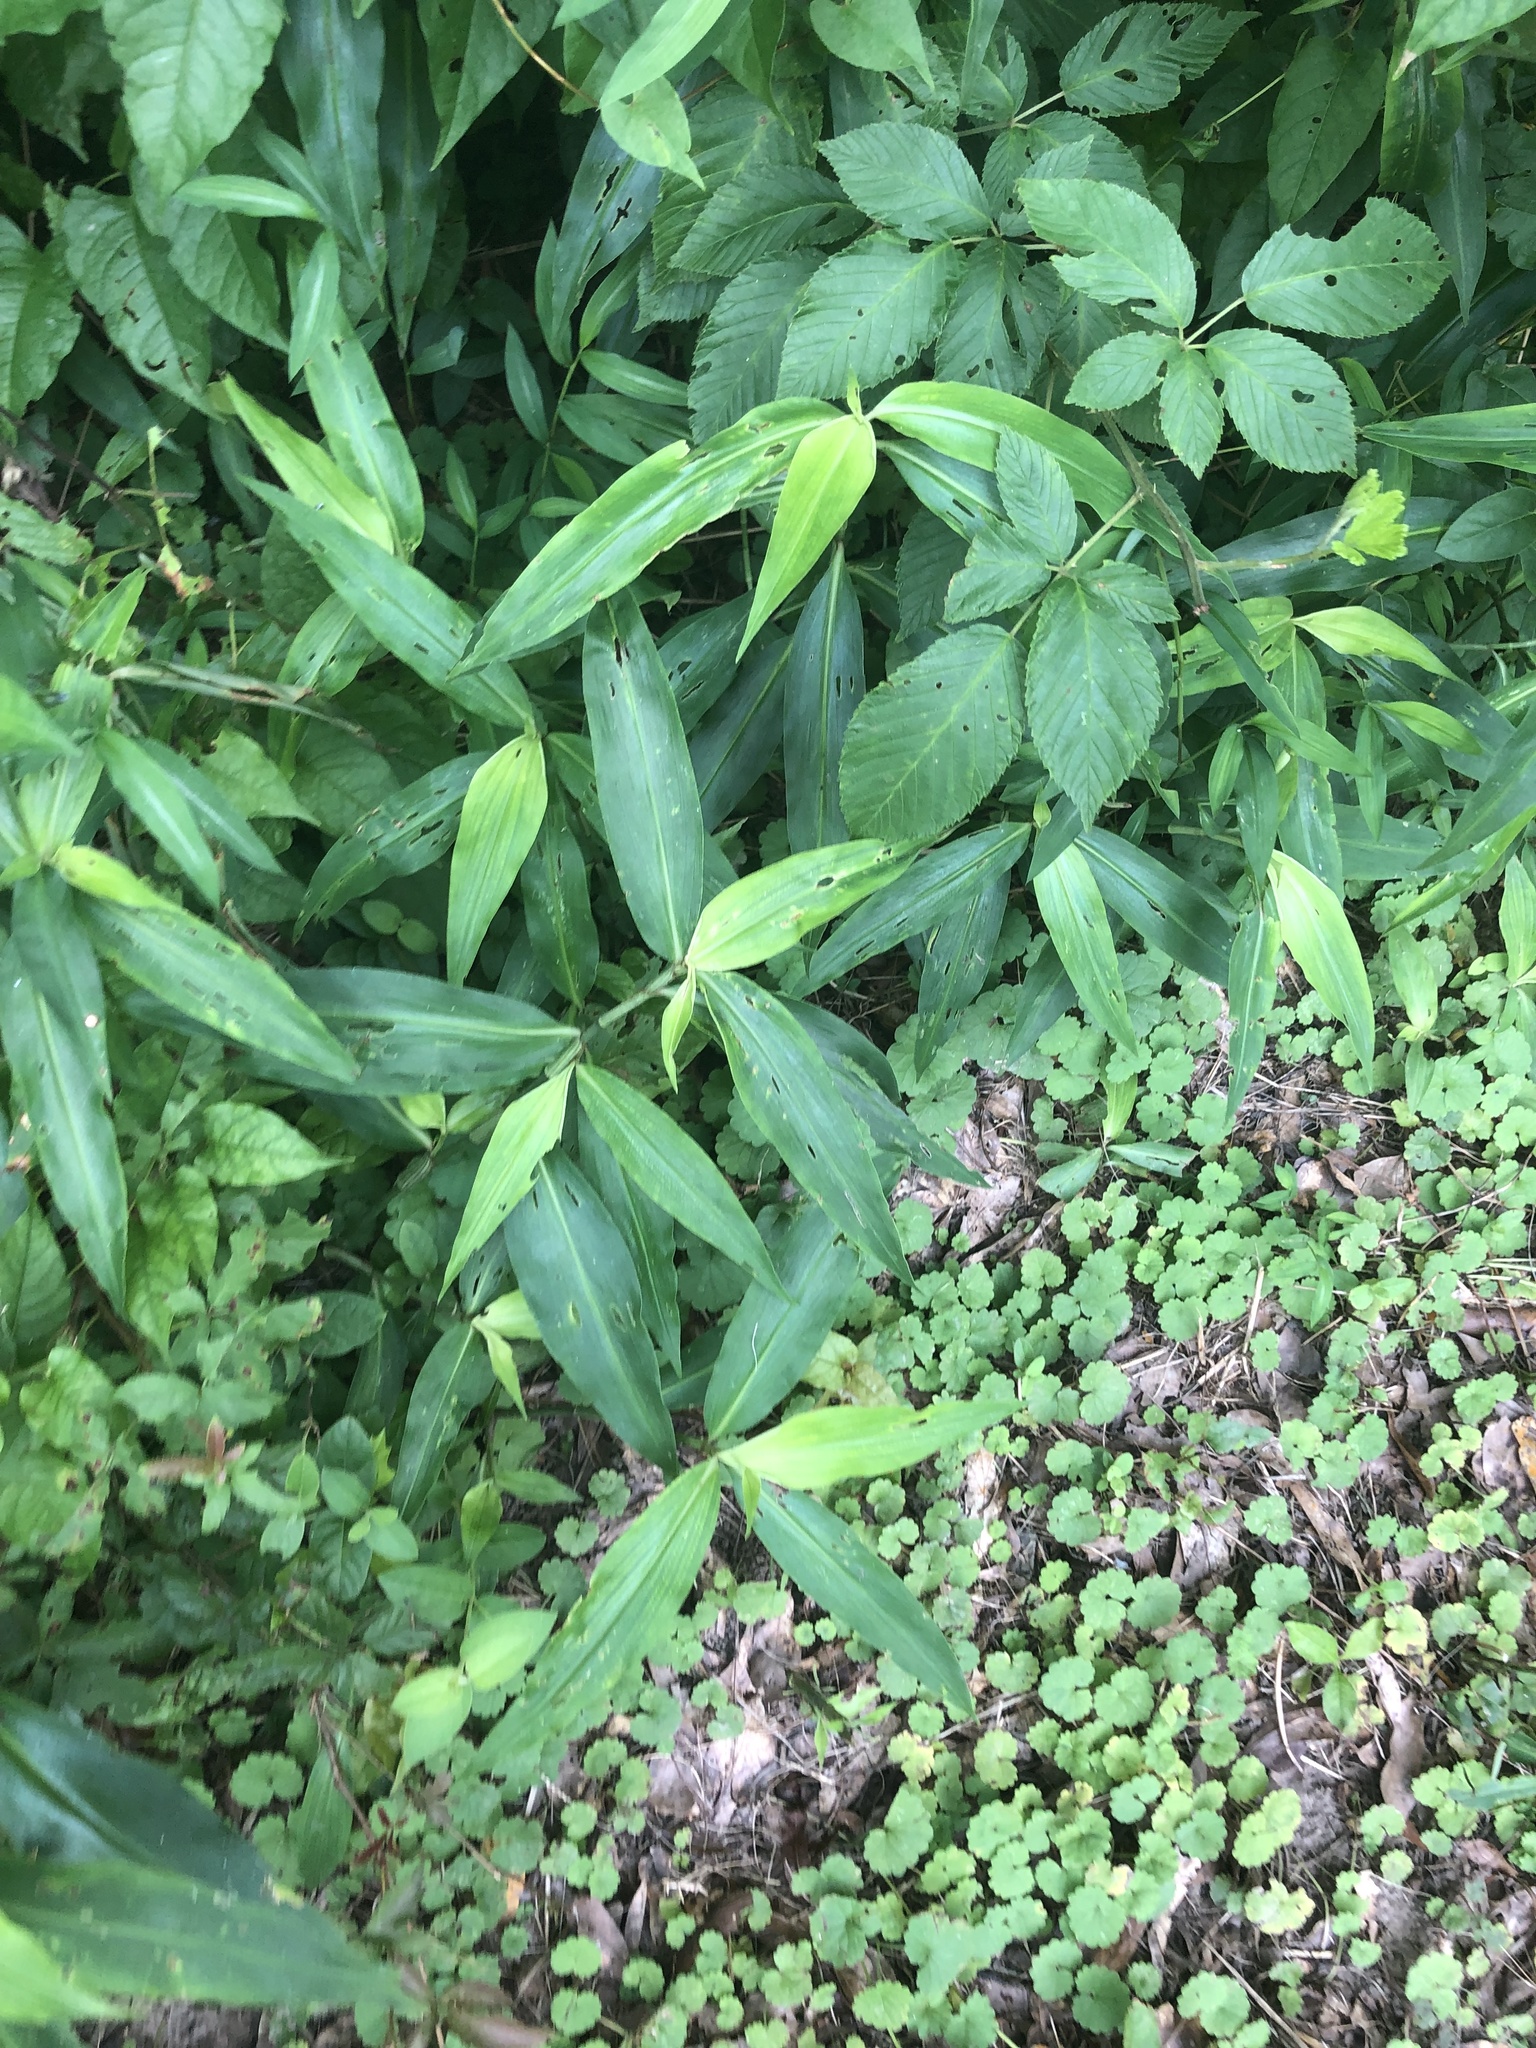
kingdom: Plantae
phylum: Tracheophyta
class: Liliopsida
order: Commelinales
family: Commelinaceae
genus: Commelina
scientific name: Commelina virginica
